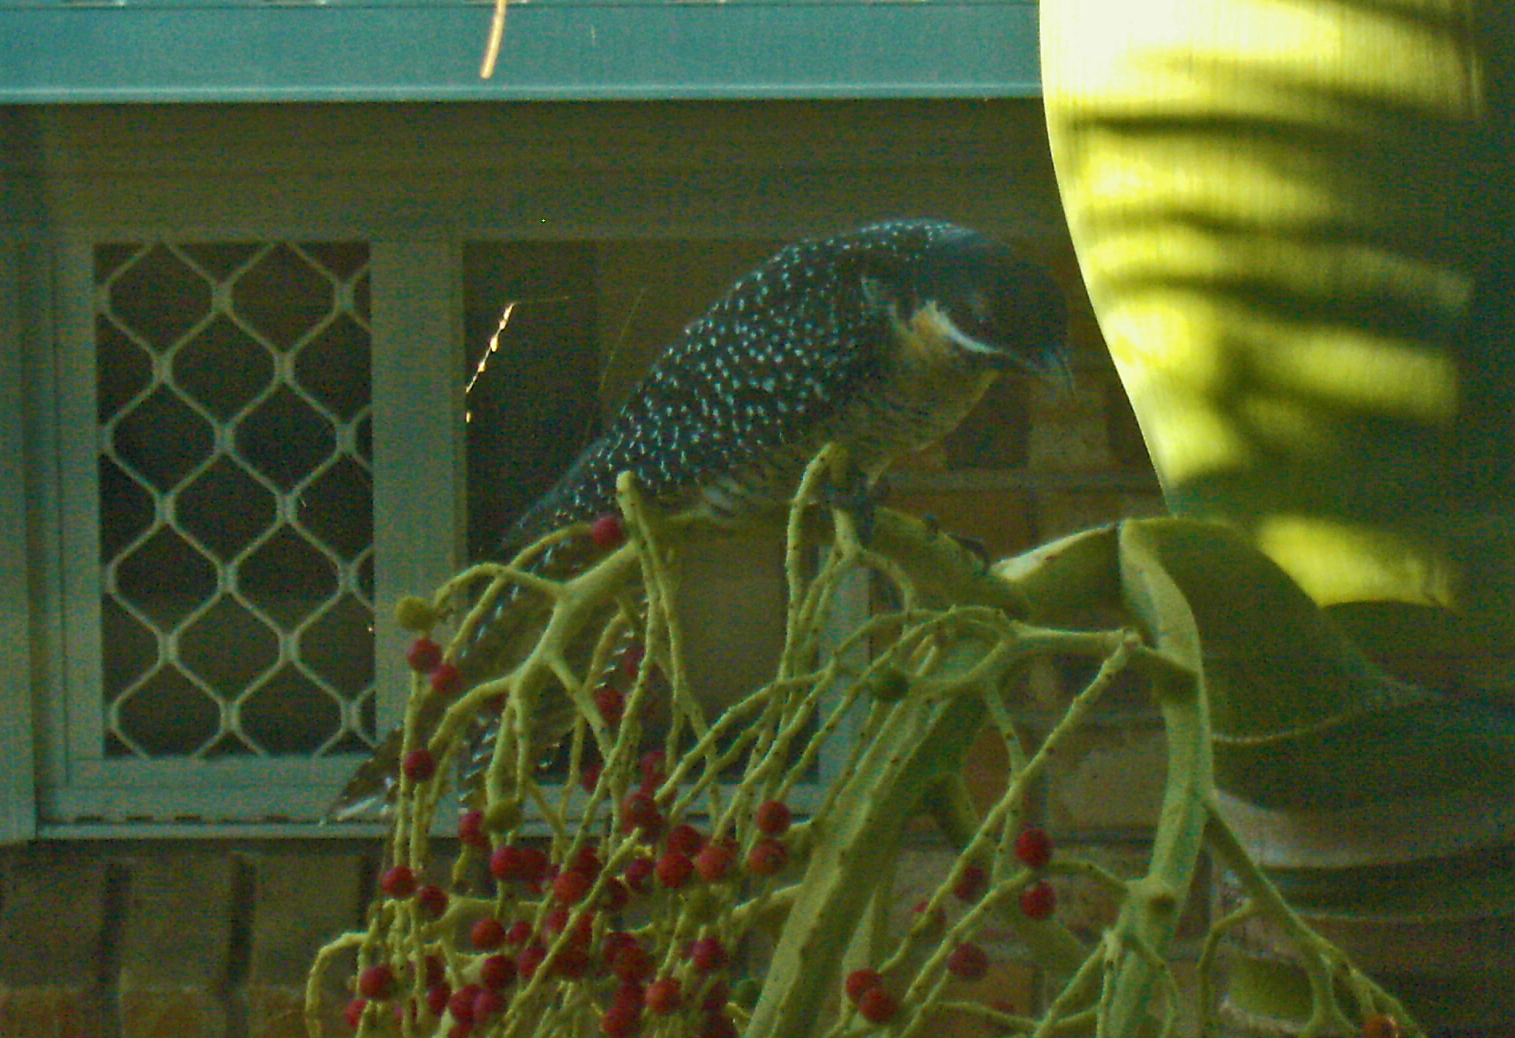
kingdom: Animalia
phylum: Chordata
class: Aves
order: Cuculiformes
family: Cuculidae
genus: Eudynamys
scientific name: Eudynamys orientalis
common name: Pacific koel
